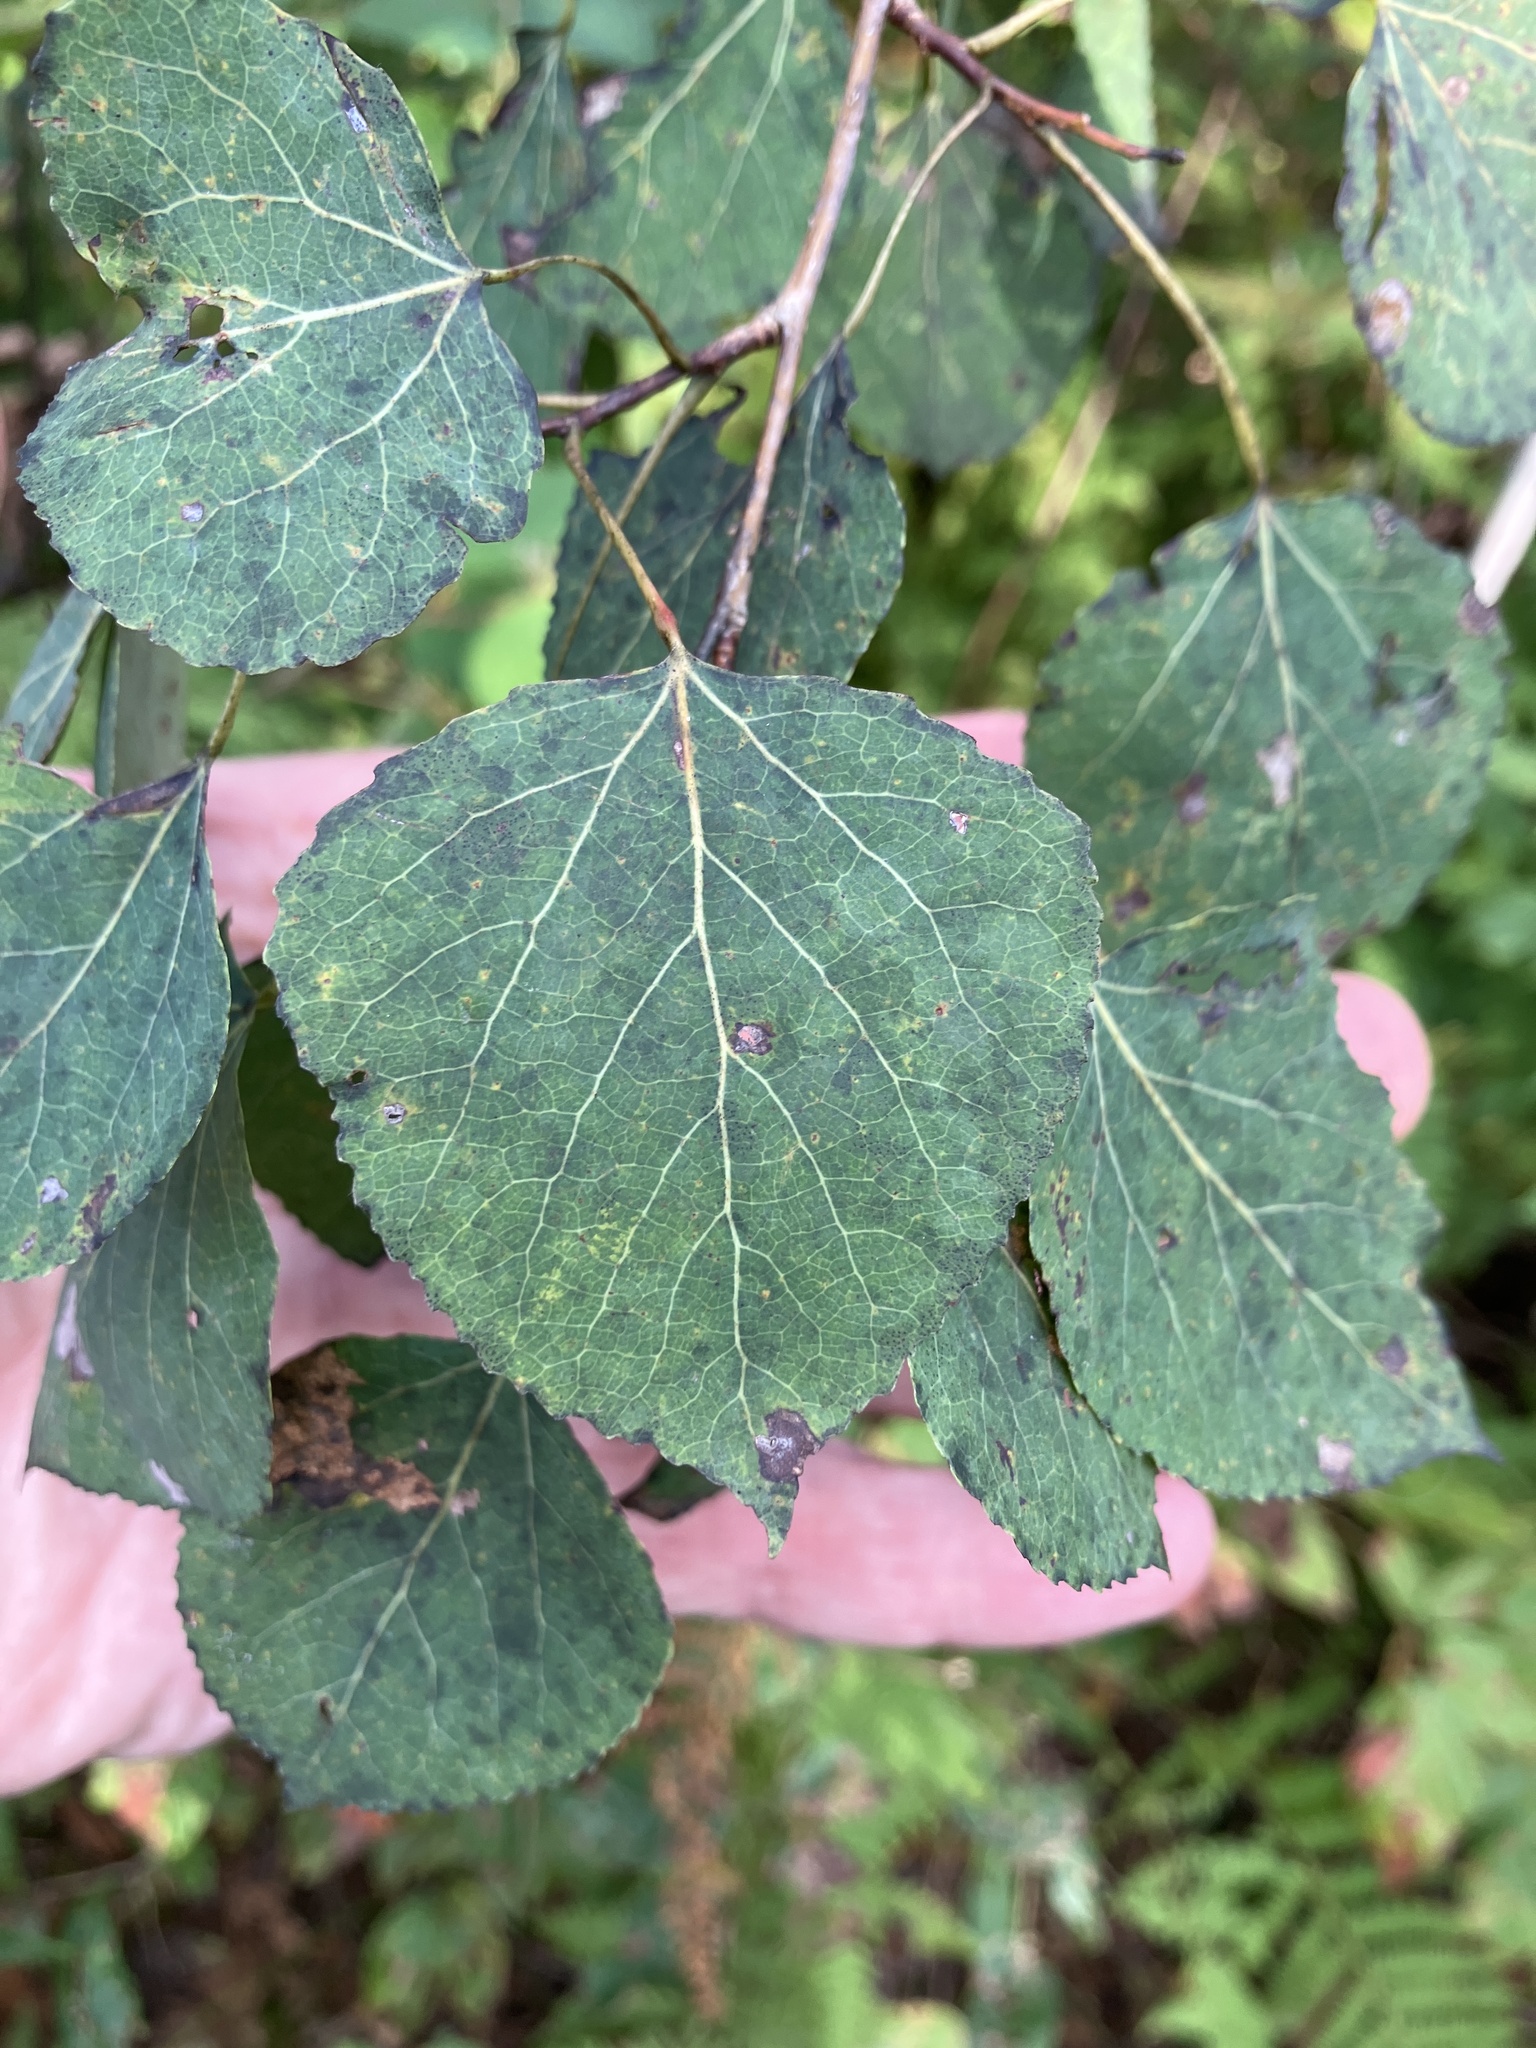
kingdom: Plantae
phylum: Tracheophyta
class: Magnoliopsida
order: Malpighiales
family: Salicaceae
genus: Populus
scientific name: Populus tremuloides
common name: Quaking aspen
